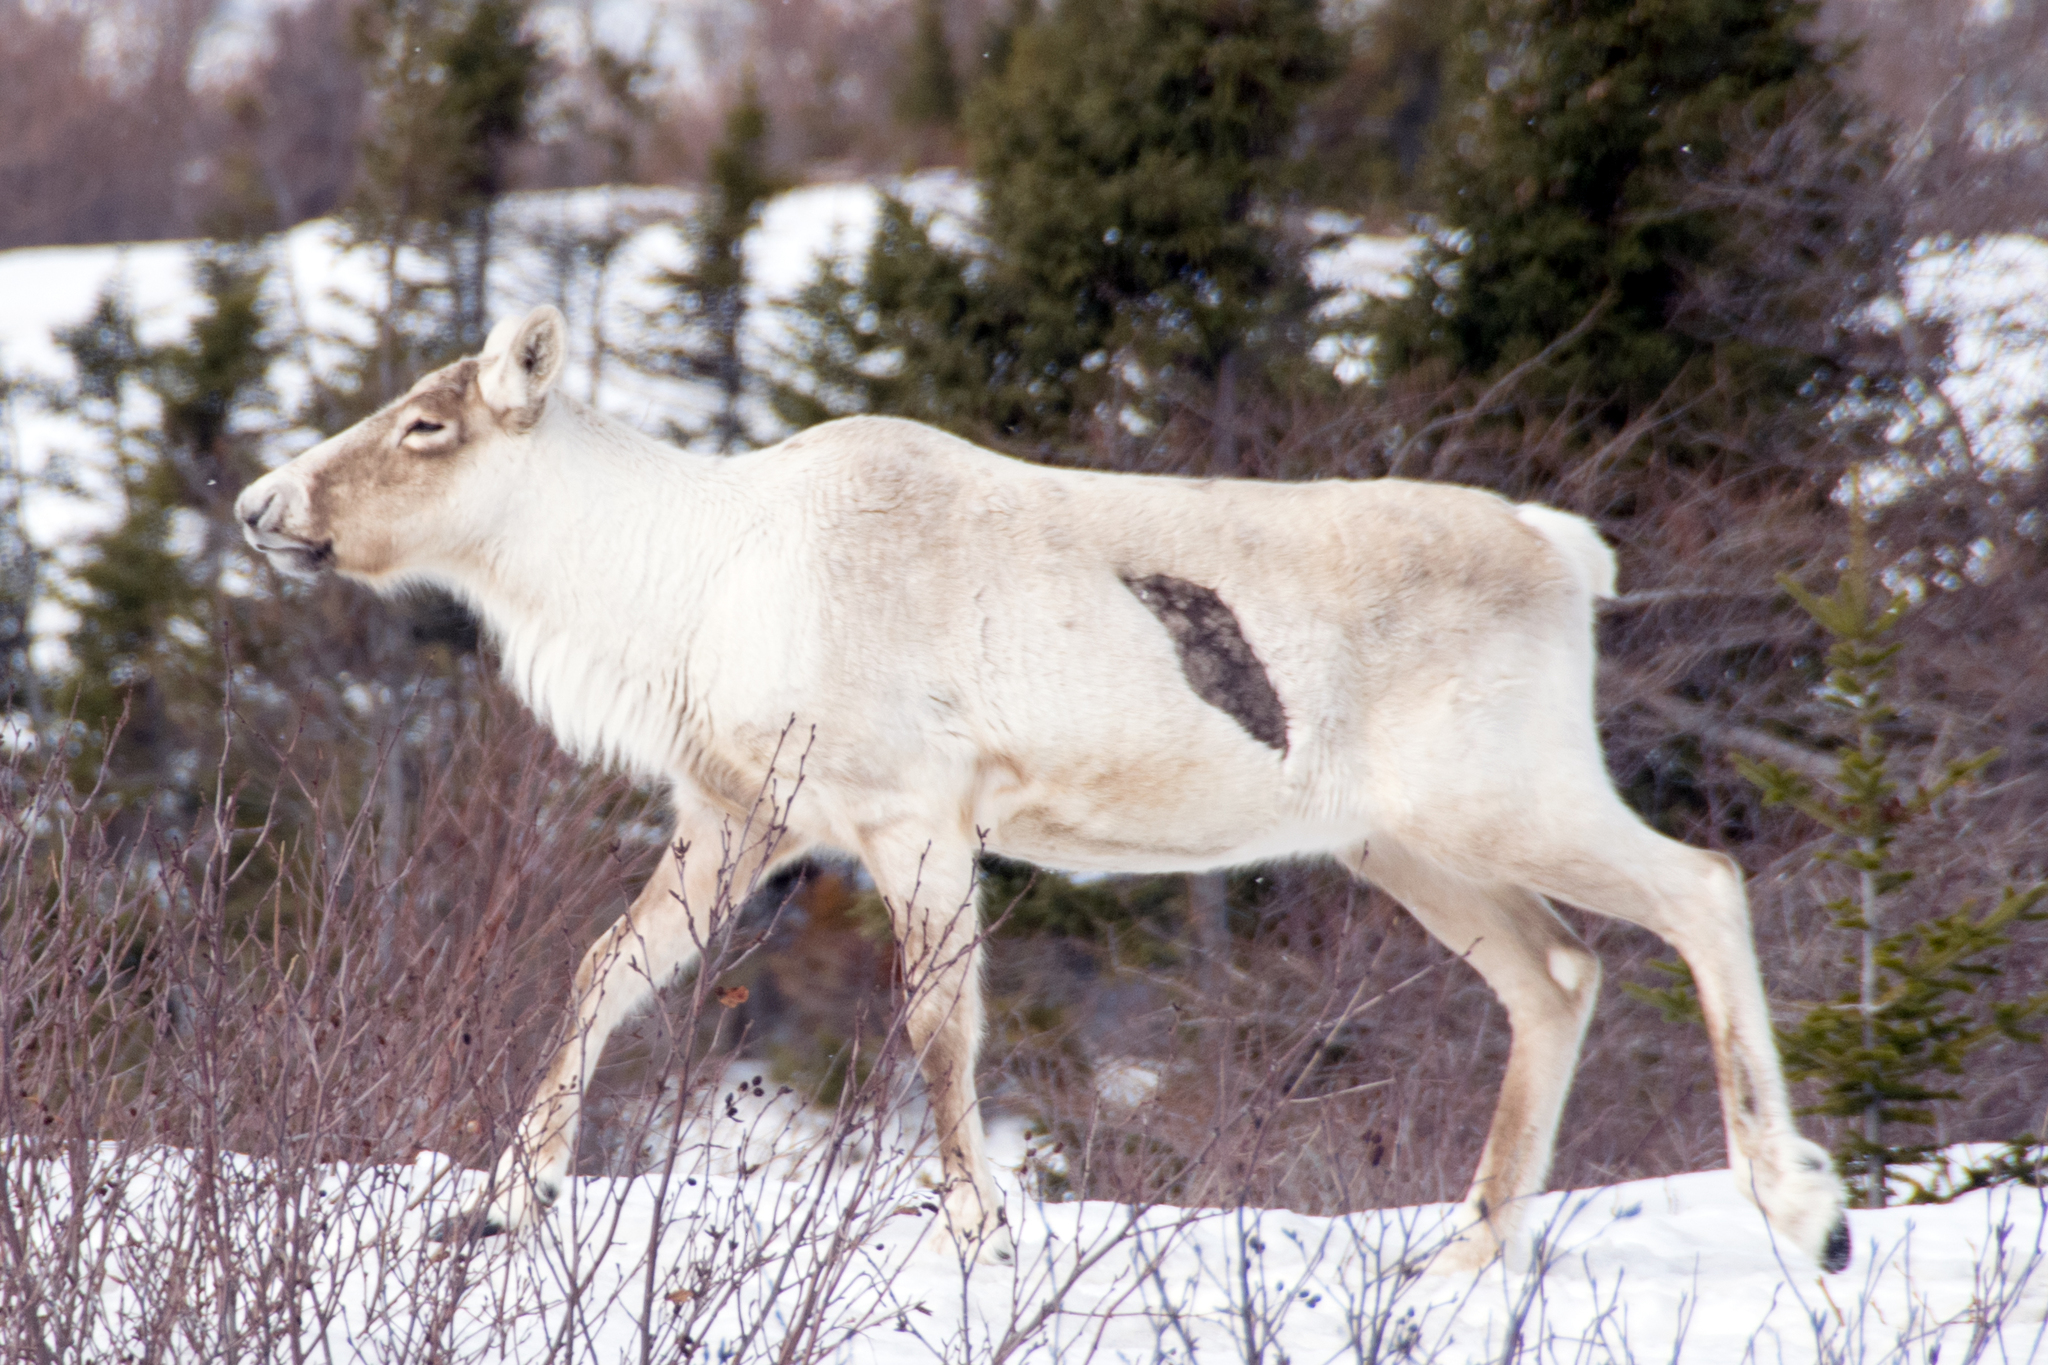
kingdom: Animalia
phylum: Chordata
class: Mammalia
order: Artiodactyla
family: Cervidae
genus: Rangifer
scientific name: Rangifer tarandus
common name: Reindeer
